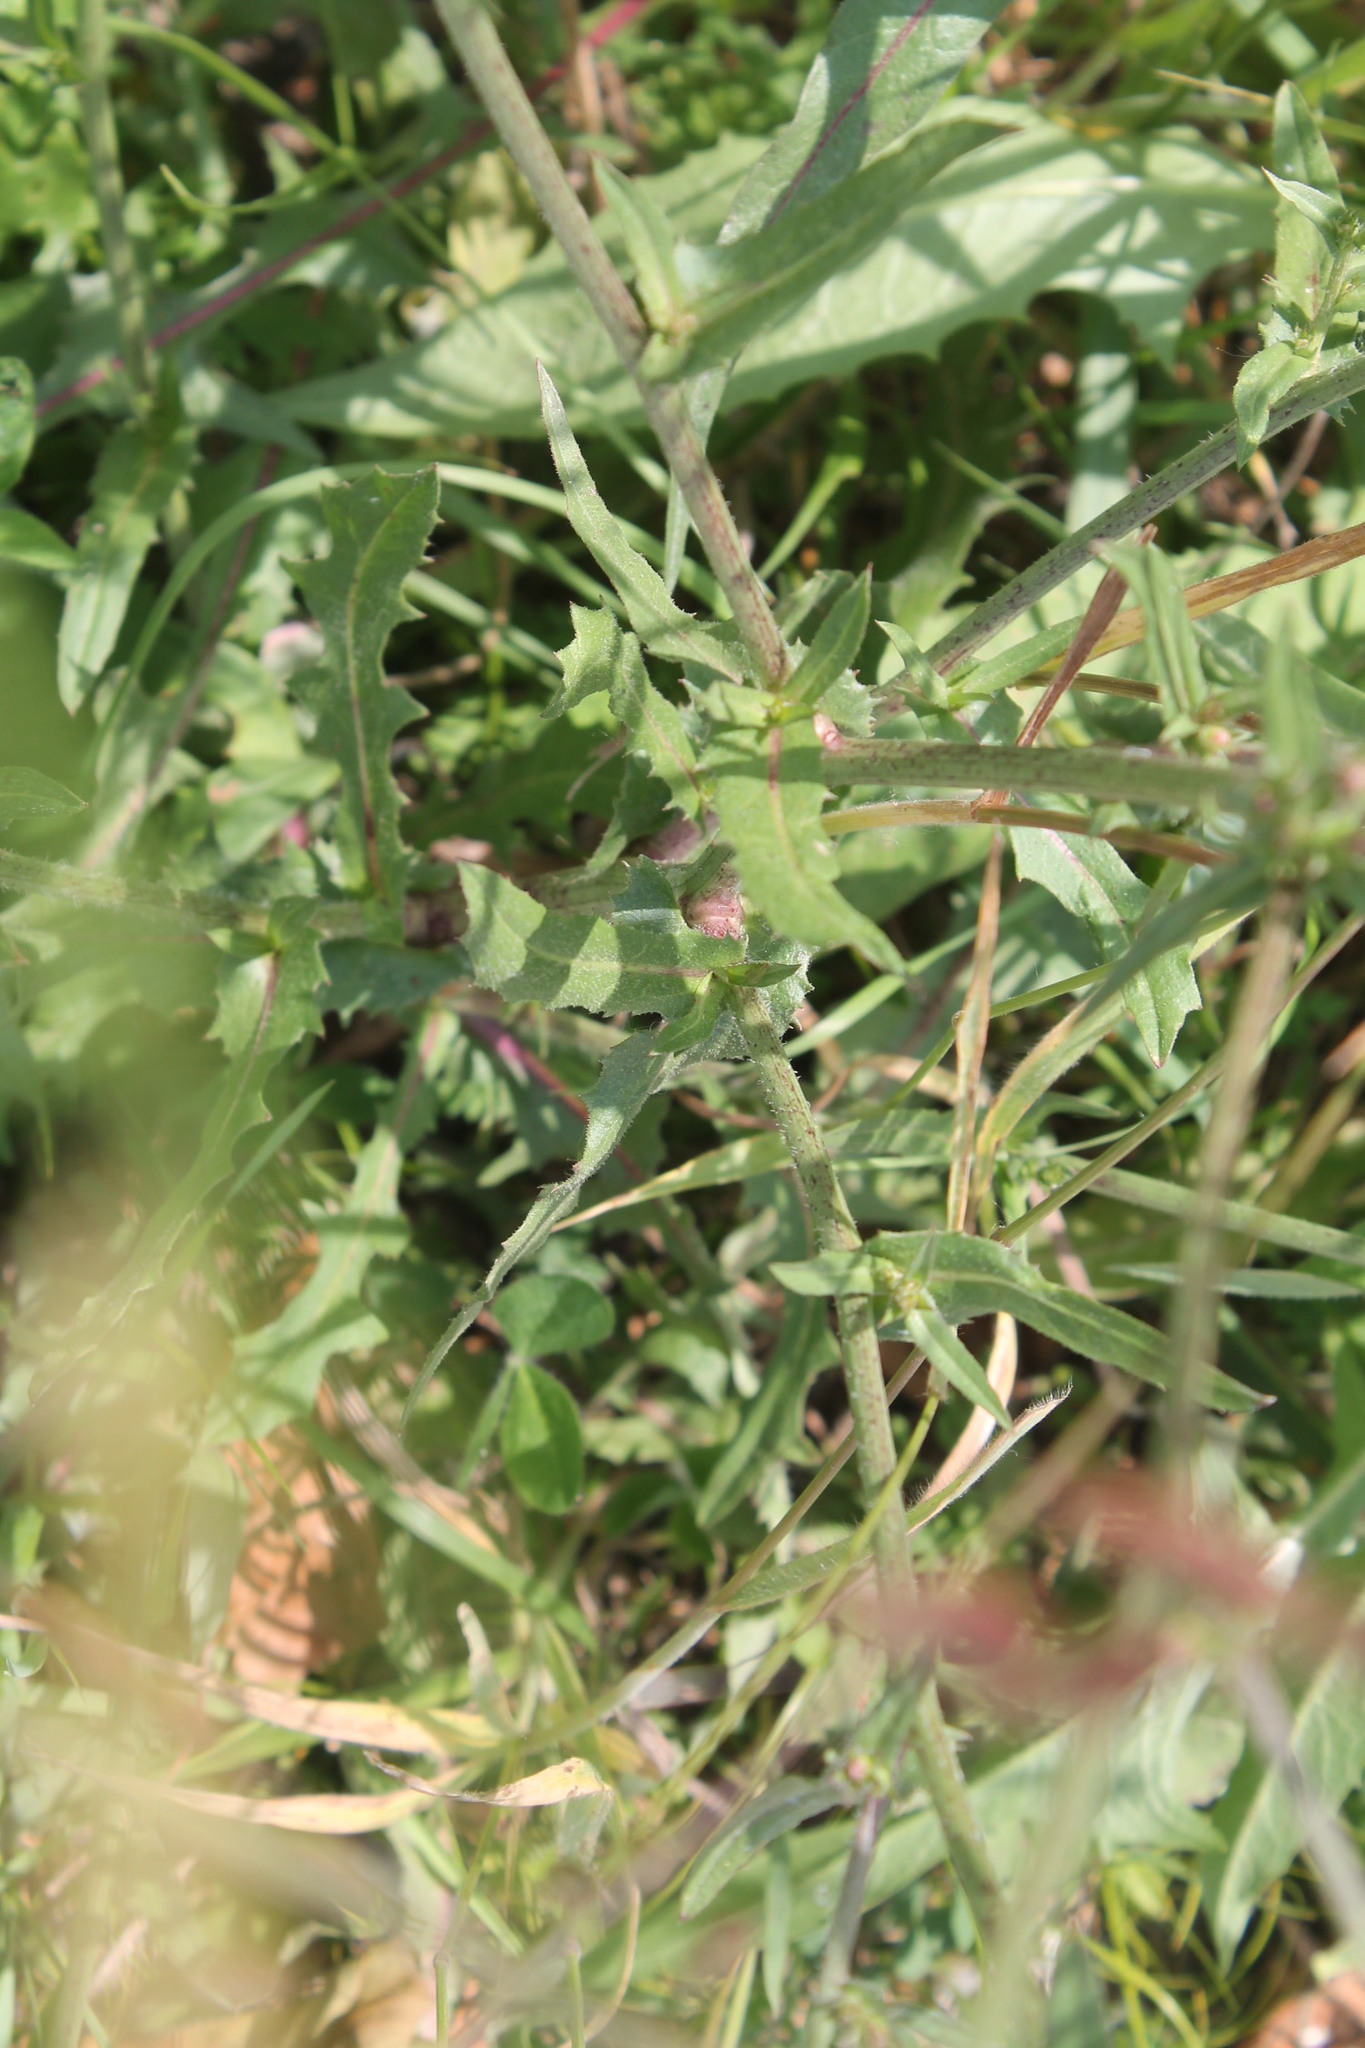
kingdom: Plantae
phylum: Tracheophyta
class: Magnoliopsida
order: Asterales
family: Asteraceae
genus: Cichorium
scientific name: Cichorium intybus
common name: Chicory
